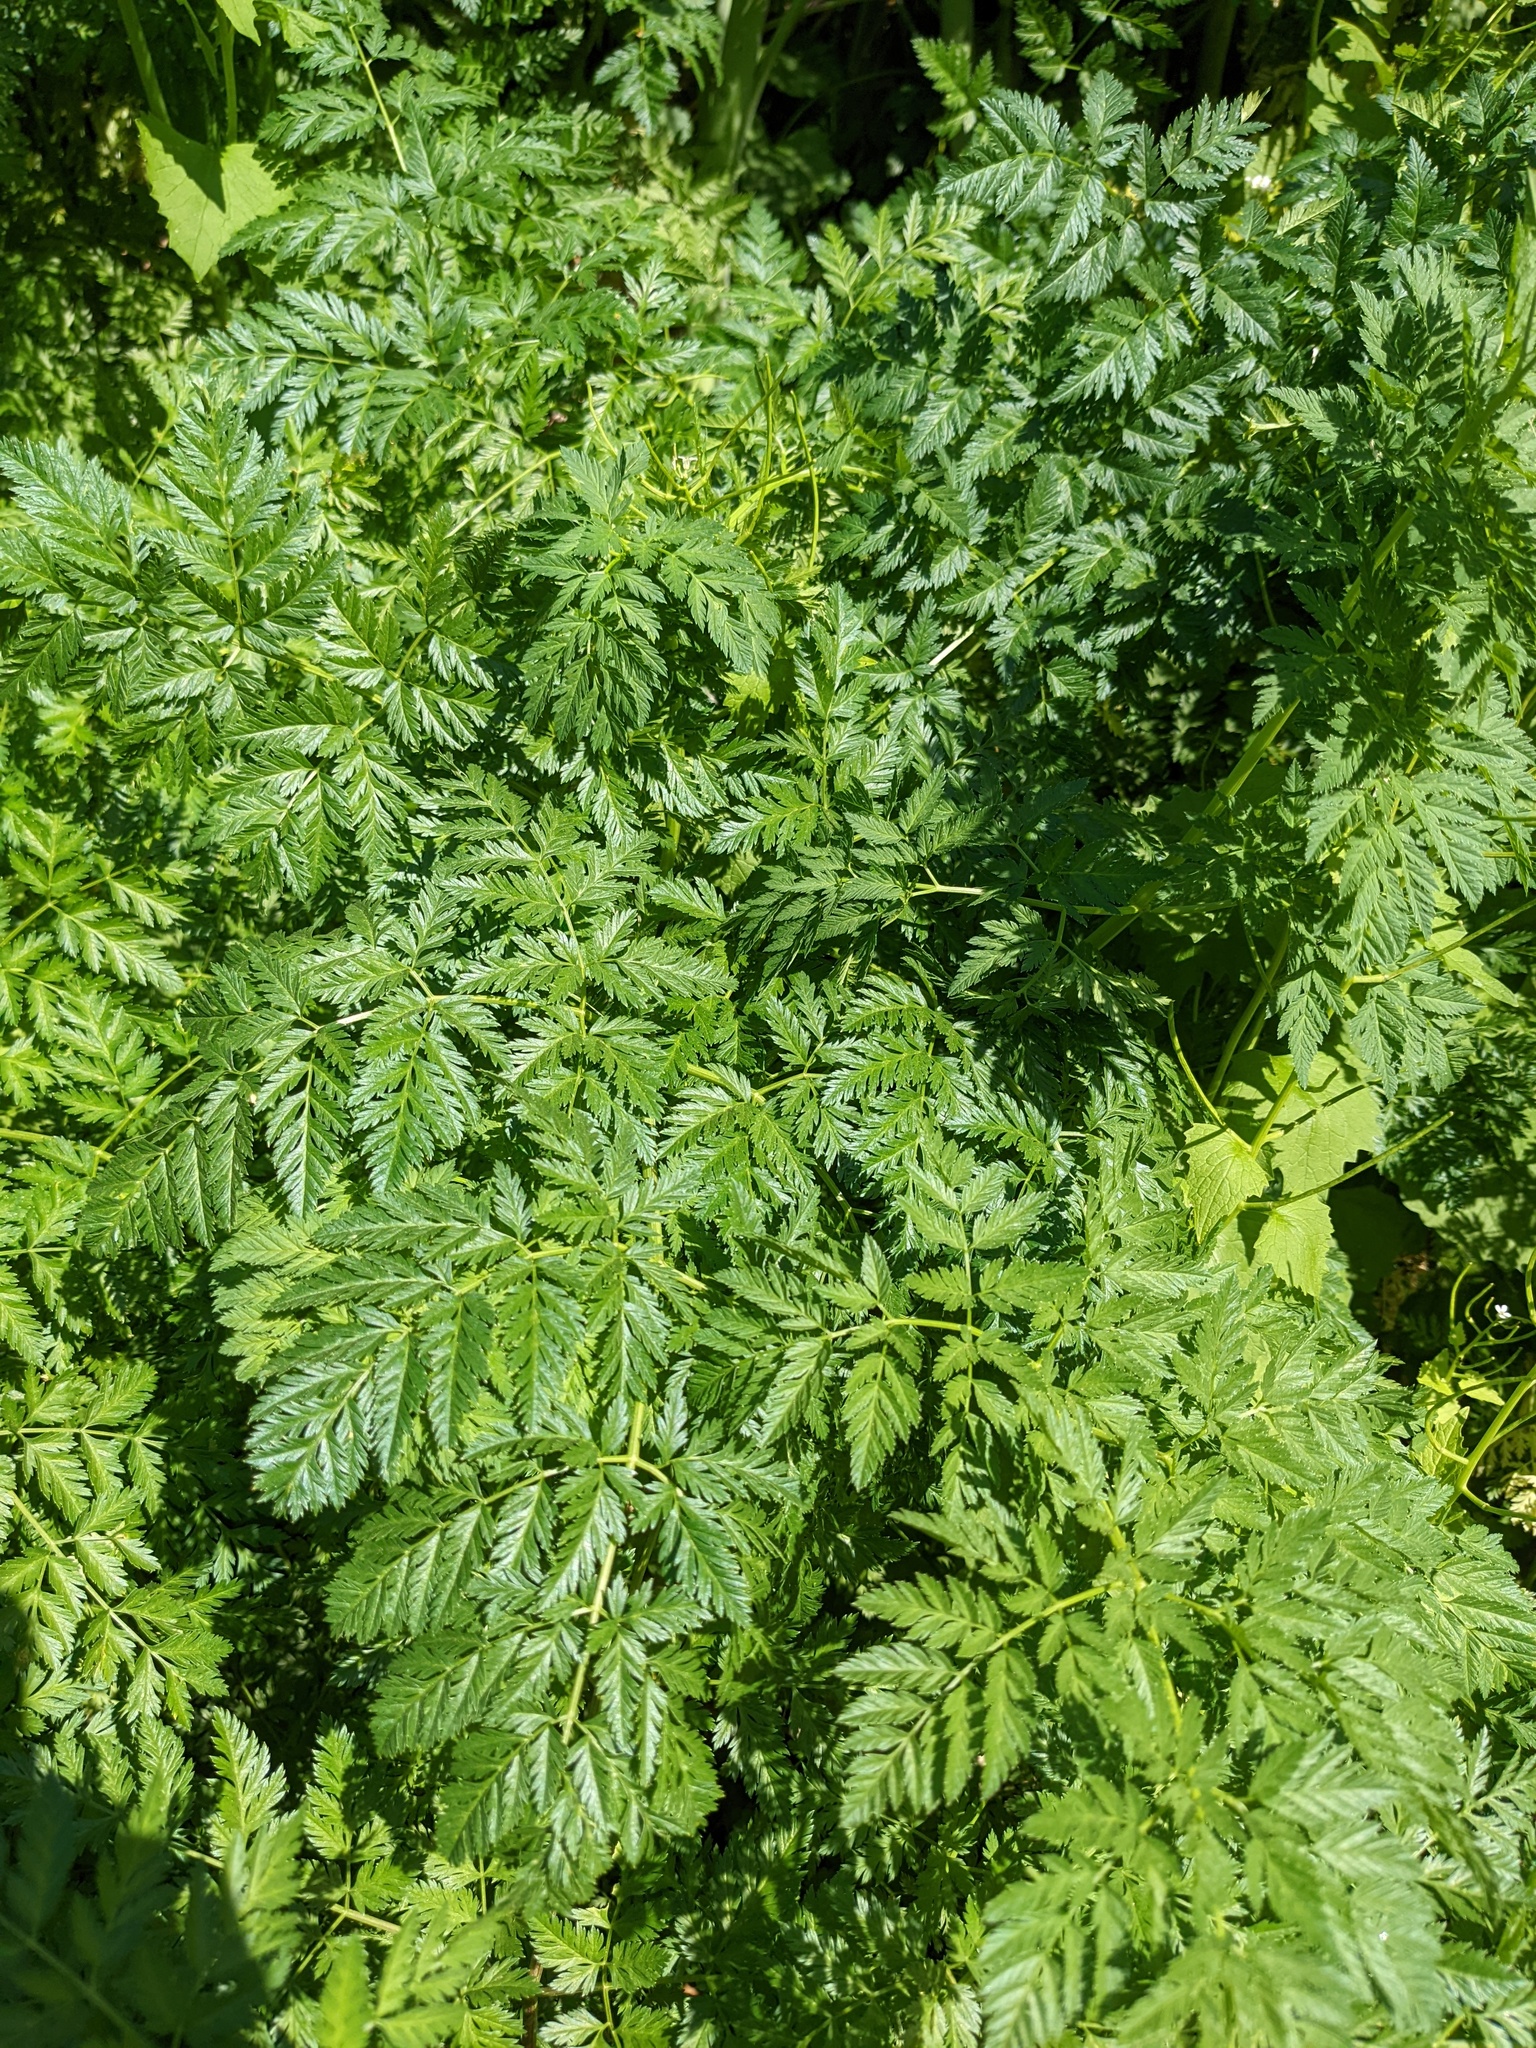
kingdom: Plantae
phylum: Tracheophyta
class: Magnoliopsida
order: Apiales
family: Apiaceae
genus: Conium
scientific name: Conium maculatum
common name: Hemlock
